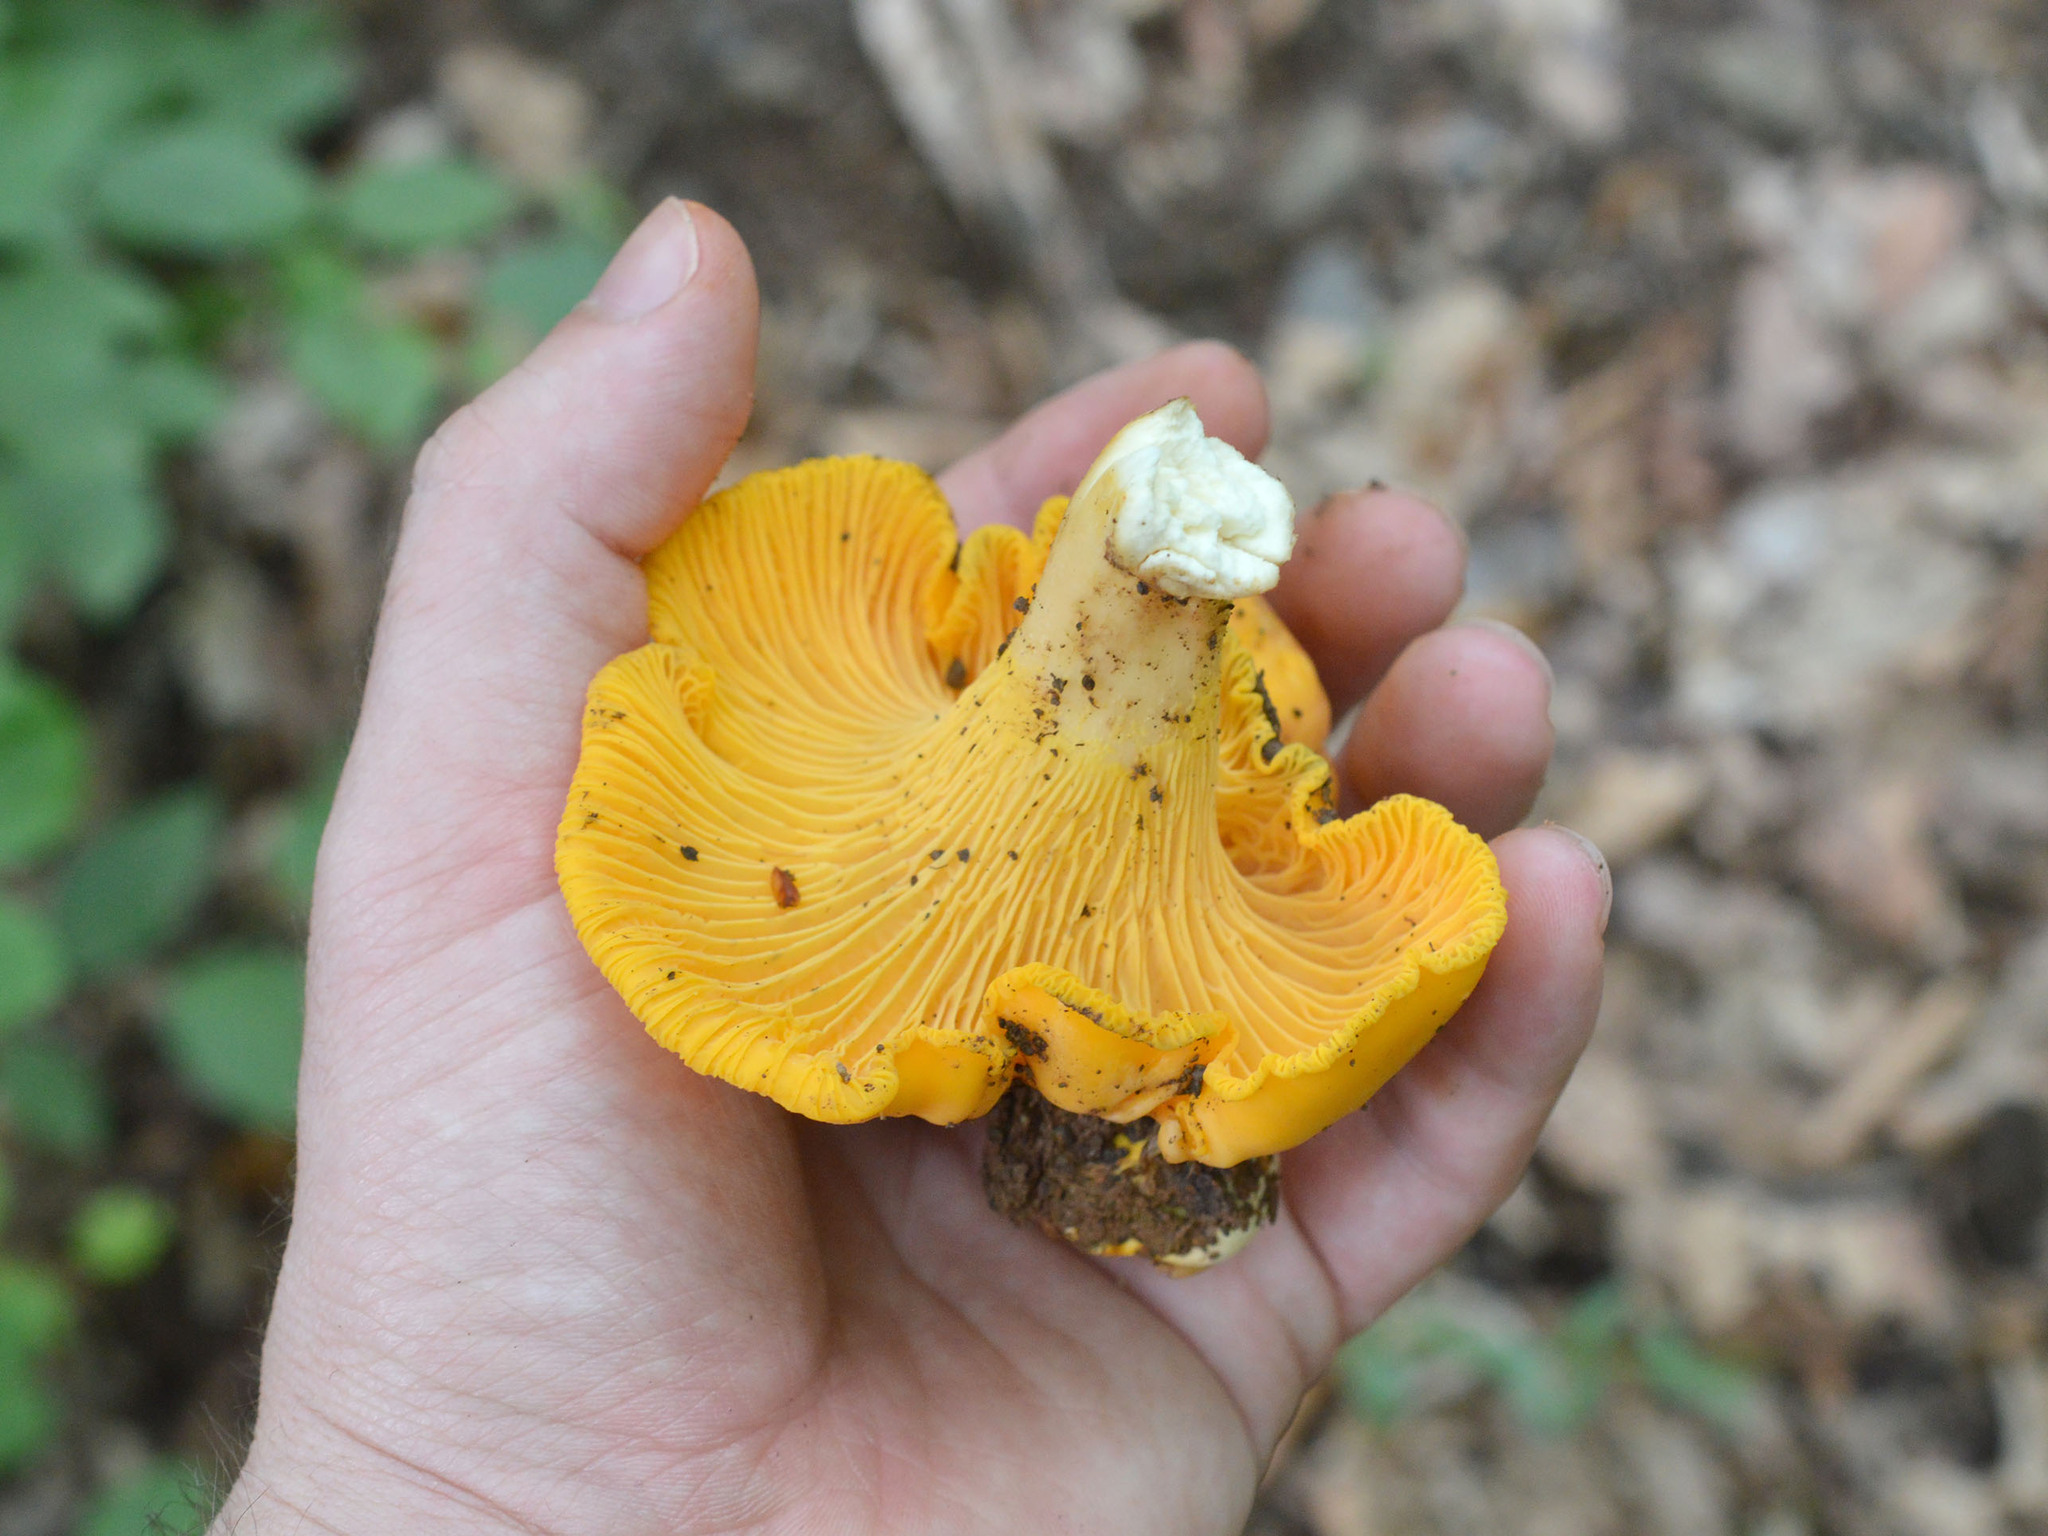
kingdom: Fungi
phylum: Basidiomycota
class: Agaricomycetes
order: Cantharellales
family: Hydnaceae
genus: Cantharellus
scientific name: Cantharellus cibarius
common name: Chanterelle
